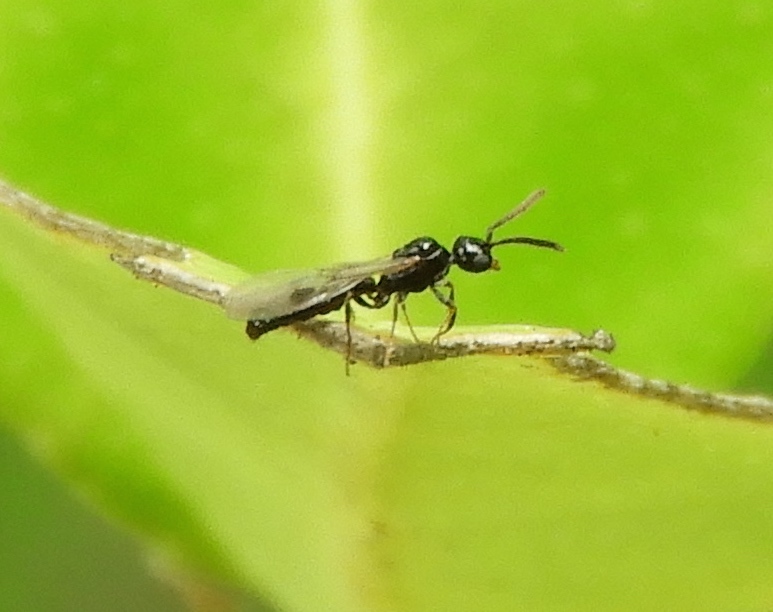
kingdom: Animalia
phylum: Arthropoda
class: Insecta
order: Hymenoptera
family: Formicidae
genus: Acanthostichus
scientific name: Acanthostichus
